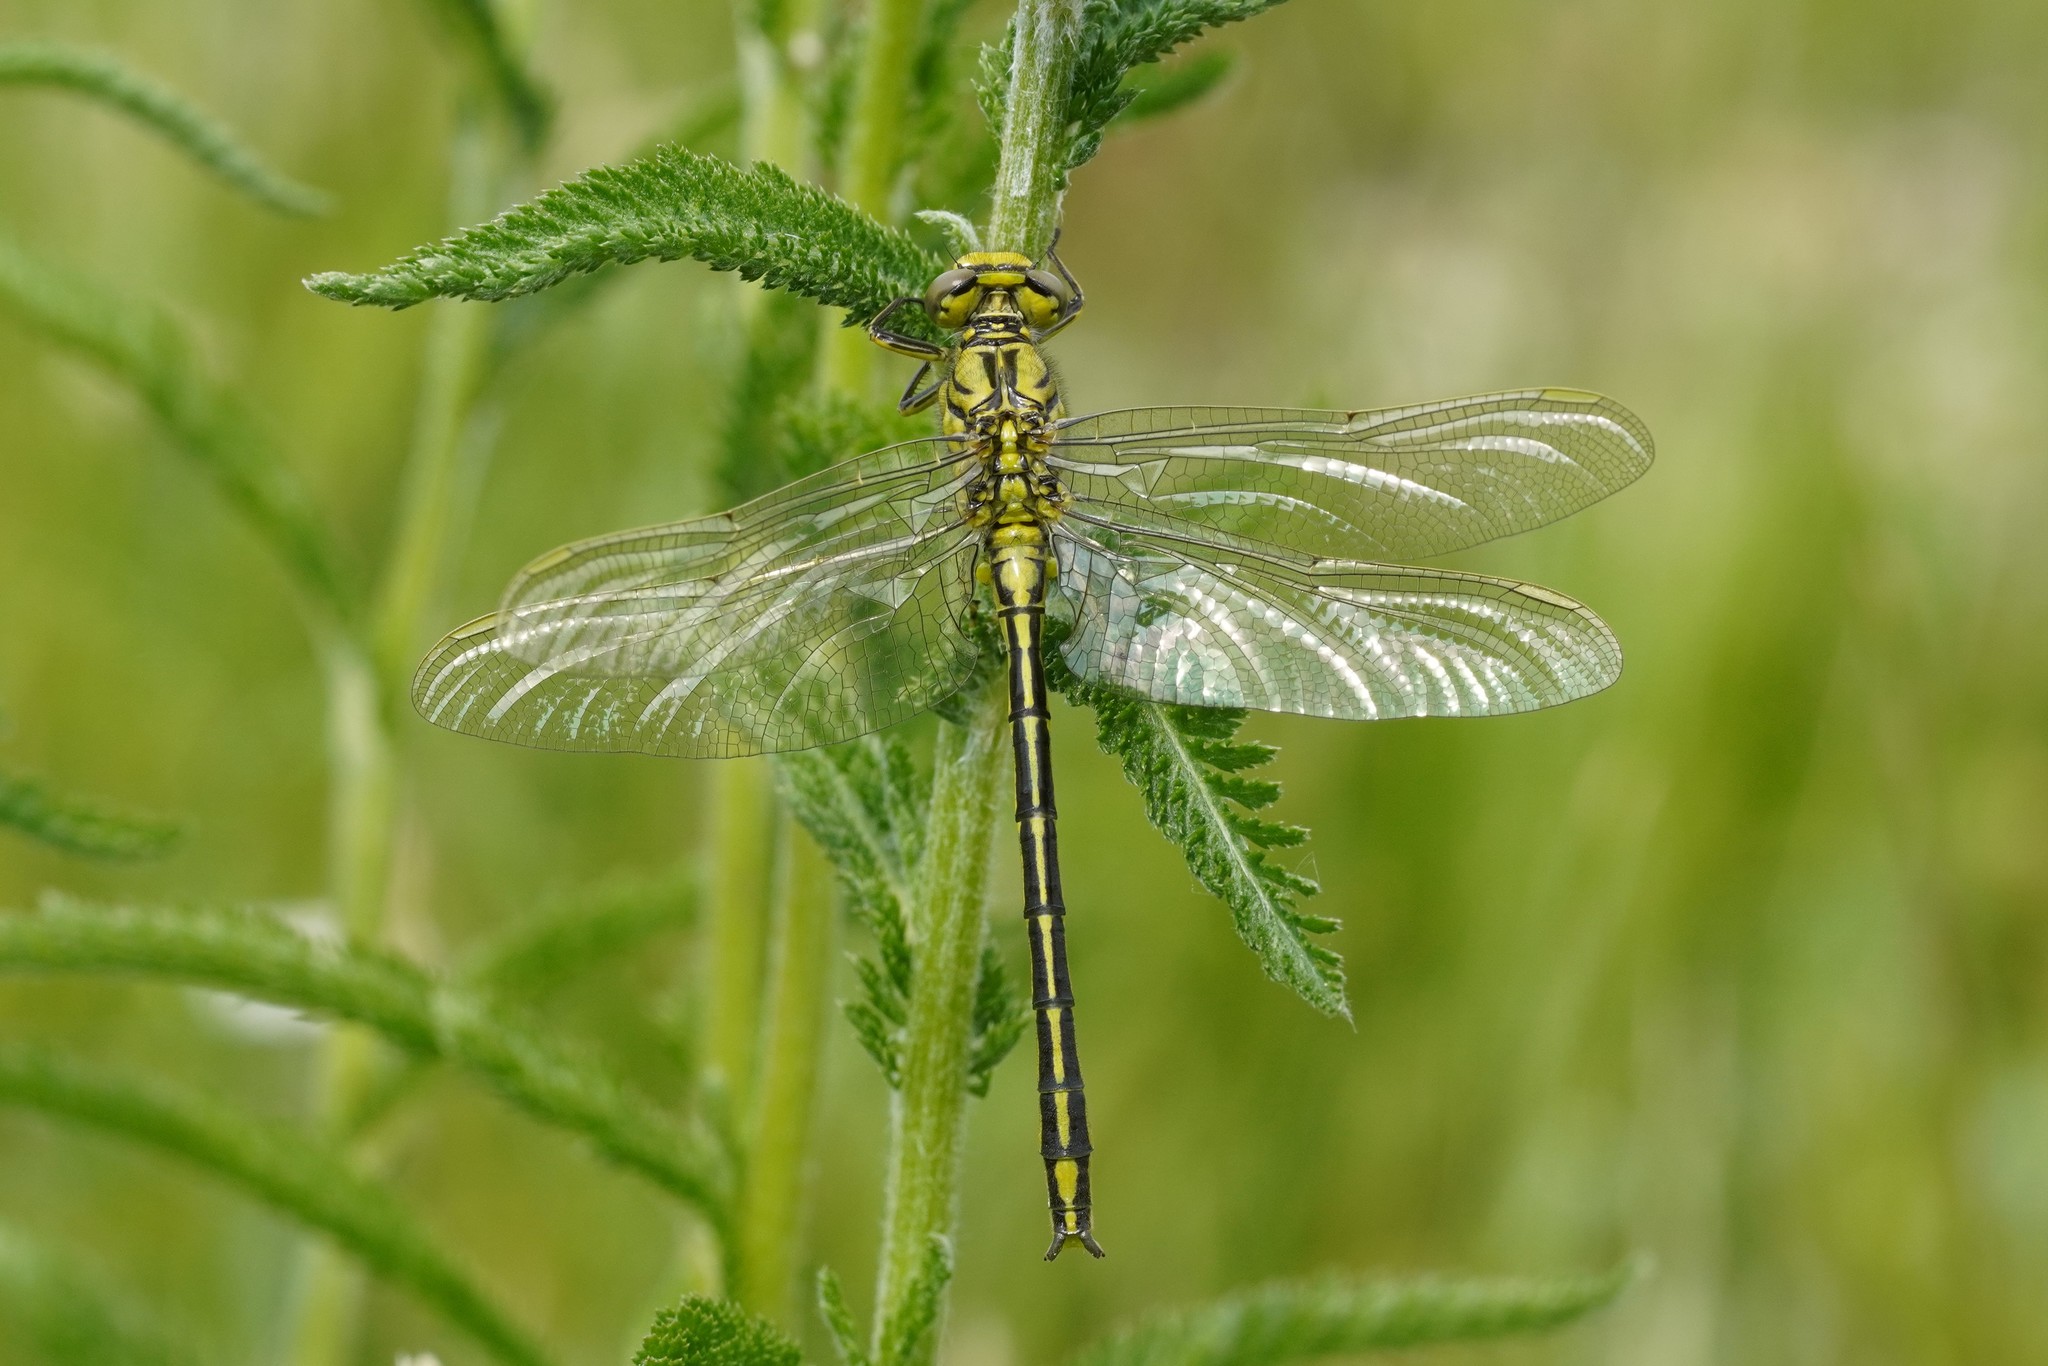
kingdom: Animalia
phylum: Arthropoda
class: Insecta
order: Odonata
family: Gomphidae
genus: Gomphus
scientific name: Gomphus pulchellus
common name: Western clubtail
